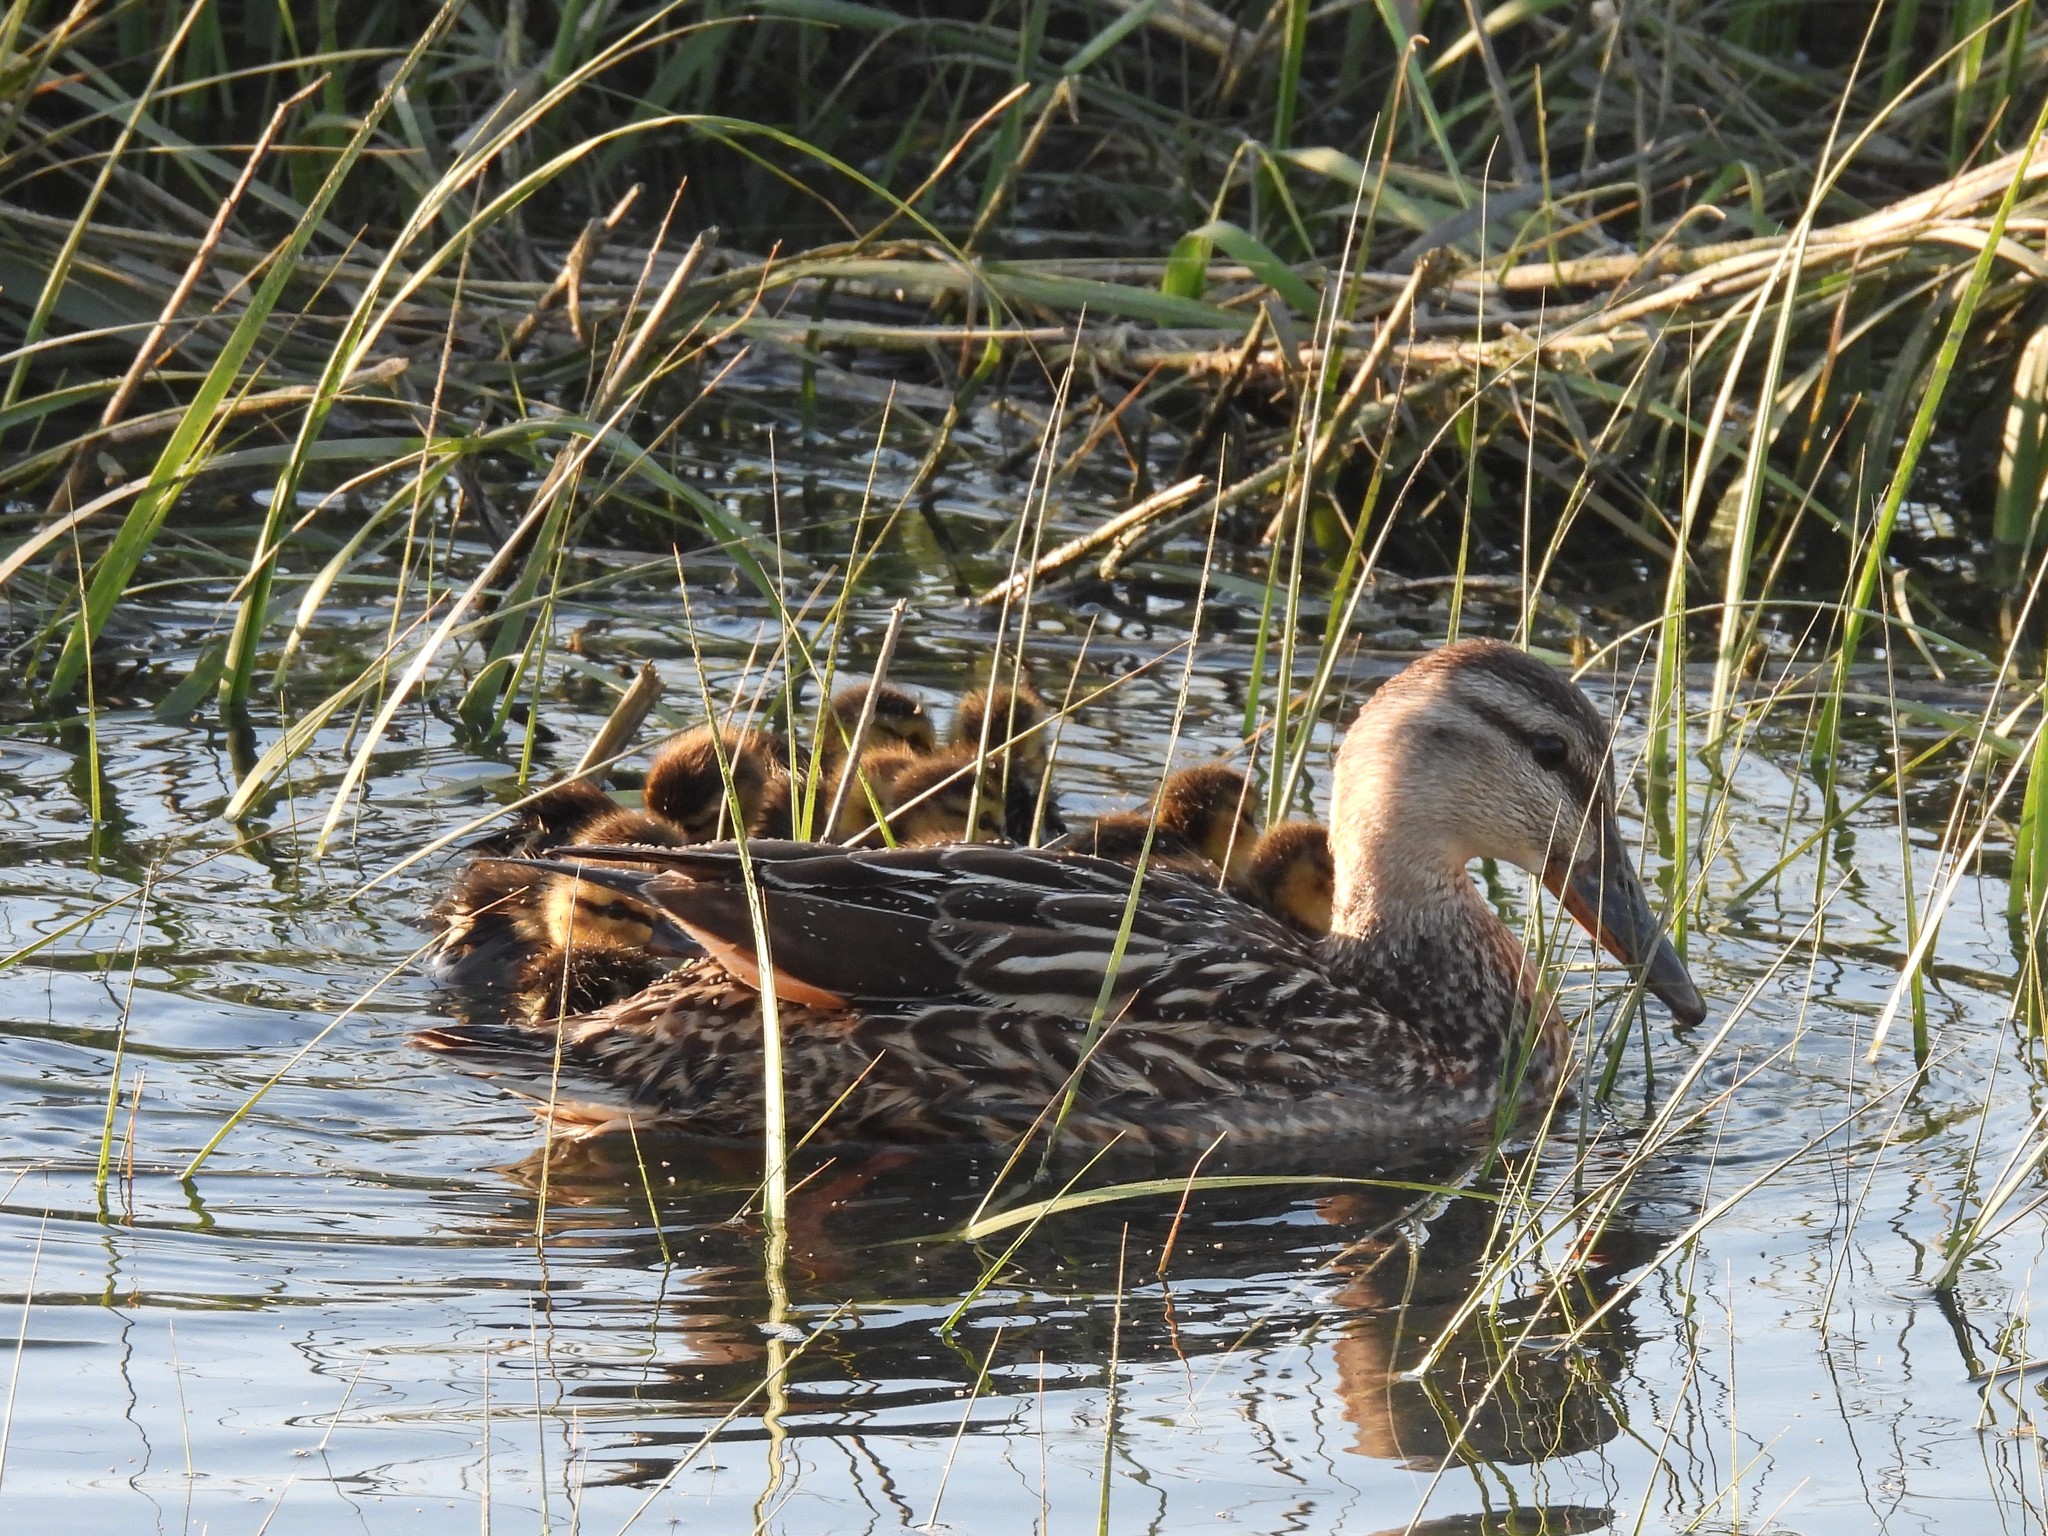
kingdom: Animalia
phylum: Chordata
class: Aves
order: Anseriformes
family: Anatidae
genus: Anas
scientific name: Anas platyrhynchos
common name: Mallard
